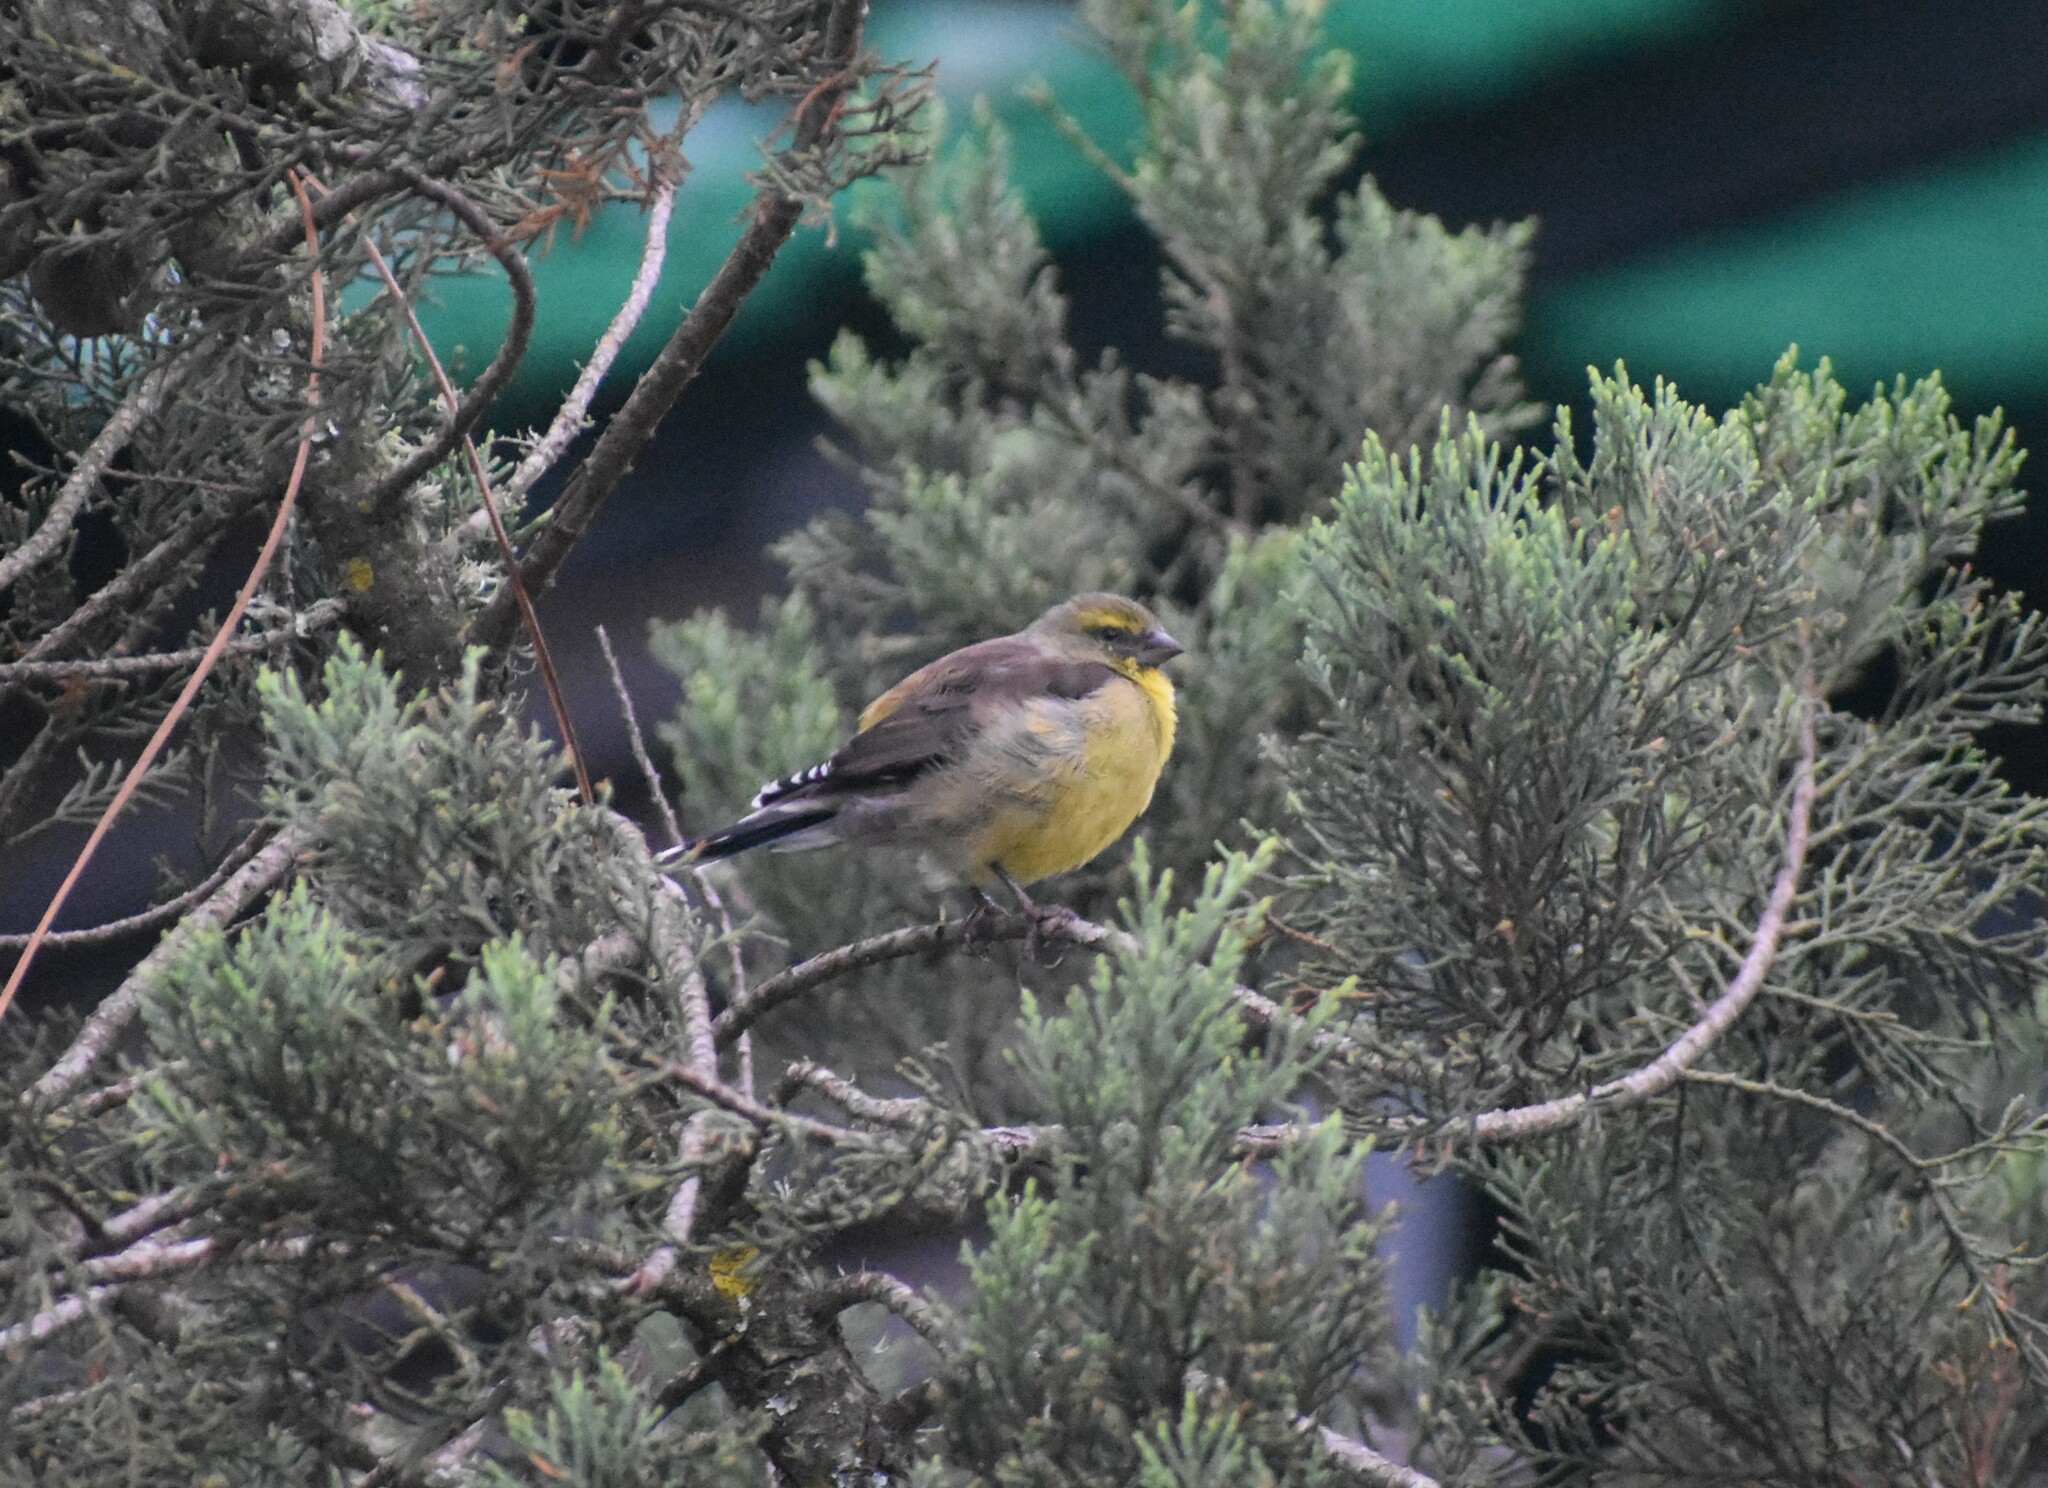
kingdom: Animalia
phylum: Chordata
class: Aves
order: Passeriformes
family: Fringillidae
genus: Crithagra
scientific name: Crithagra totta
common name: Cape siskin
